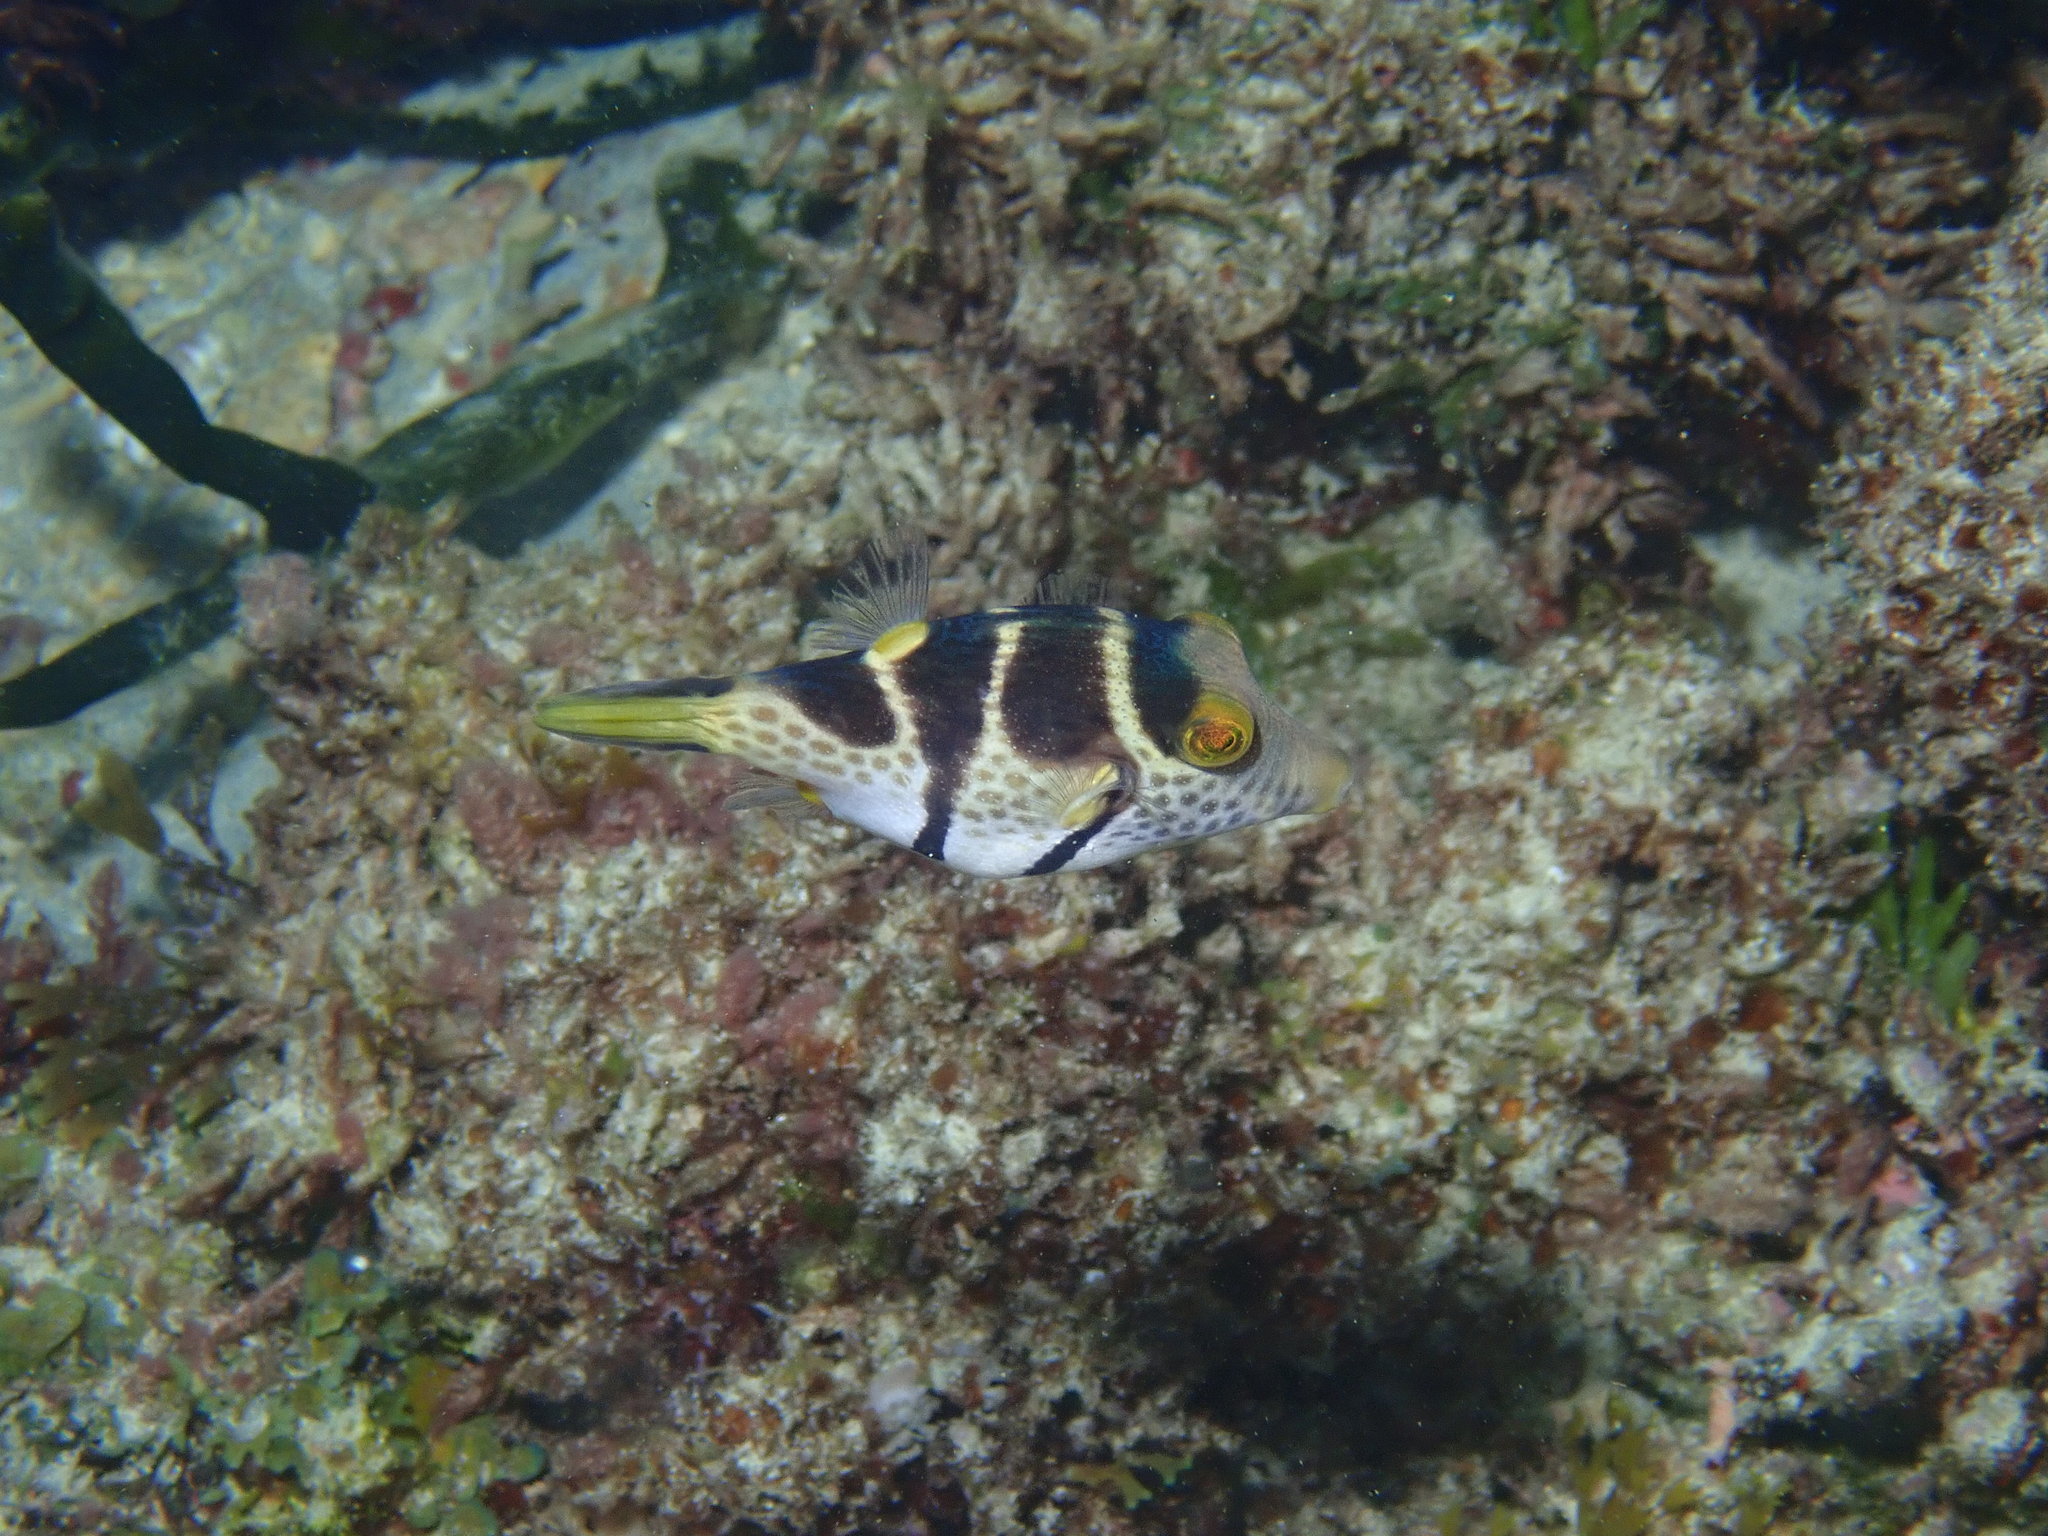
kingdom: Animalia
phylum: Chordata
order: Tetraodontiformes
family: Tetraodontidae
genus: Canthigaster
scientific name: Canthigaster valentini
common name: Banded toby
